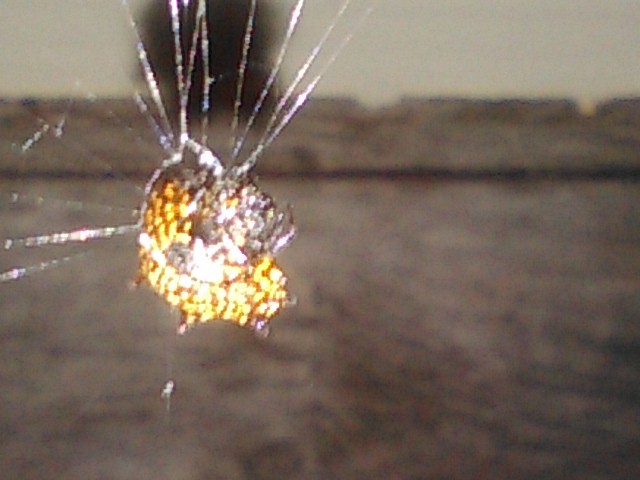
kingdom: Animalia
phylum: Arthropoda
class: Arachnida
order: Araneae
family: Araneidae
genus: Gasteracantha
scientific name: Gasteracantha cancriformis
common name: Orb weavers
